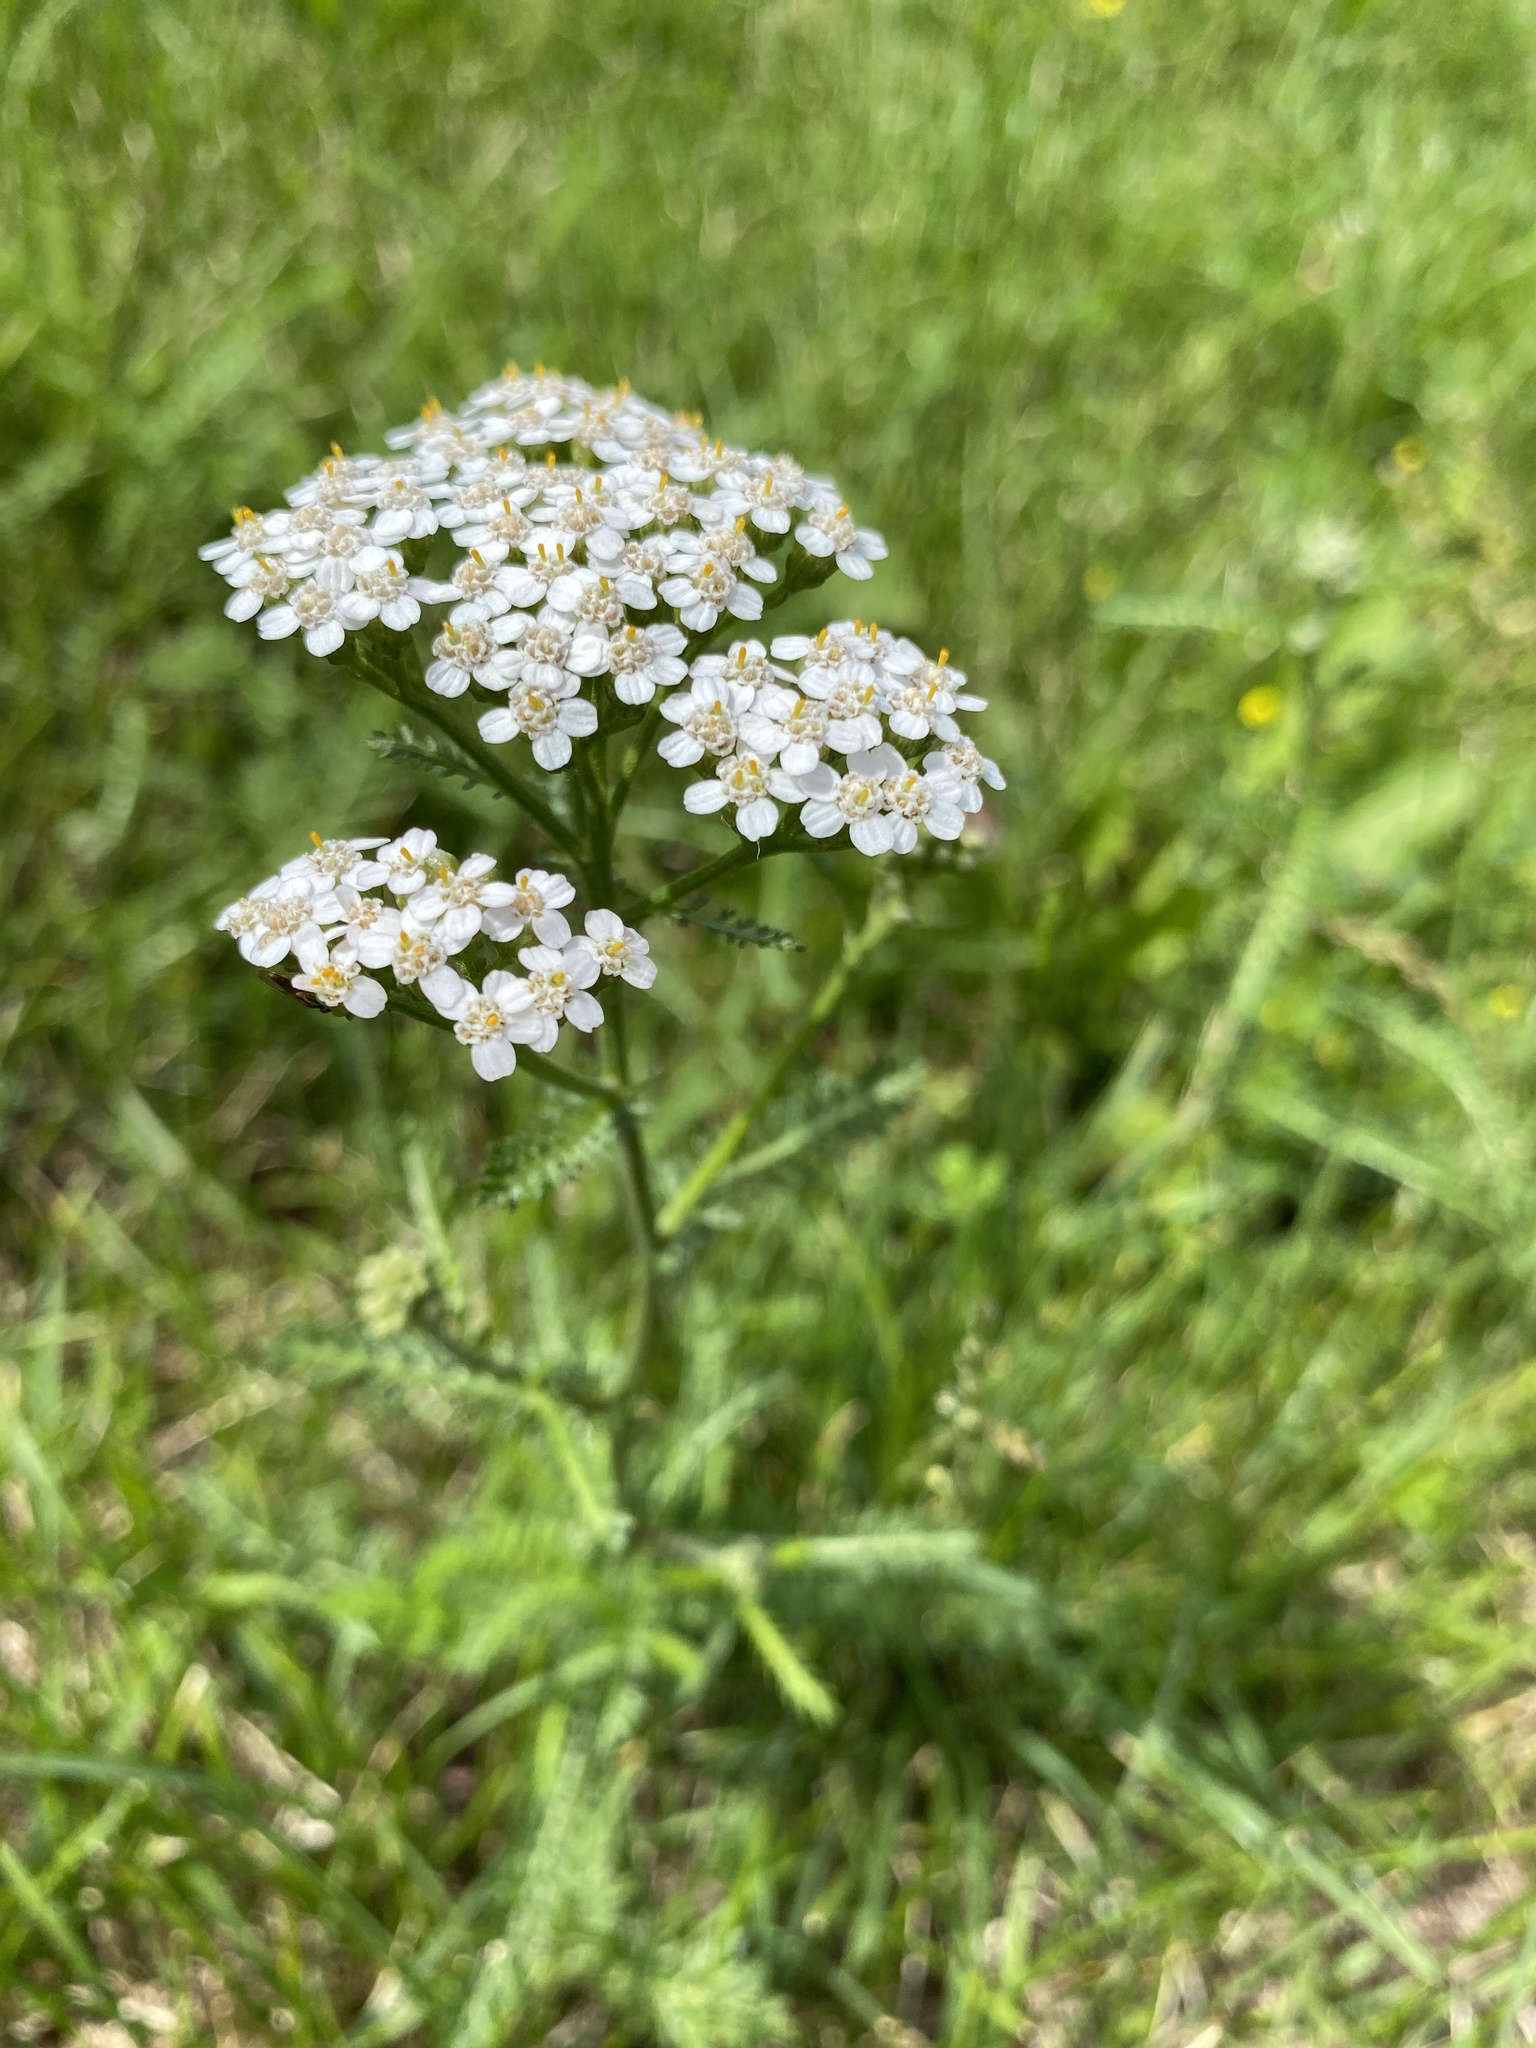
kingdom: Plantae
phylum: Tracheophyta
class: Magnoliopsida
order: Asterales
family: Asteraceae
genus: Achillea
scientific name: Achillea millefolium
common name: Yarrow
